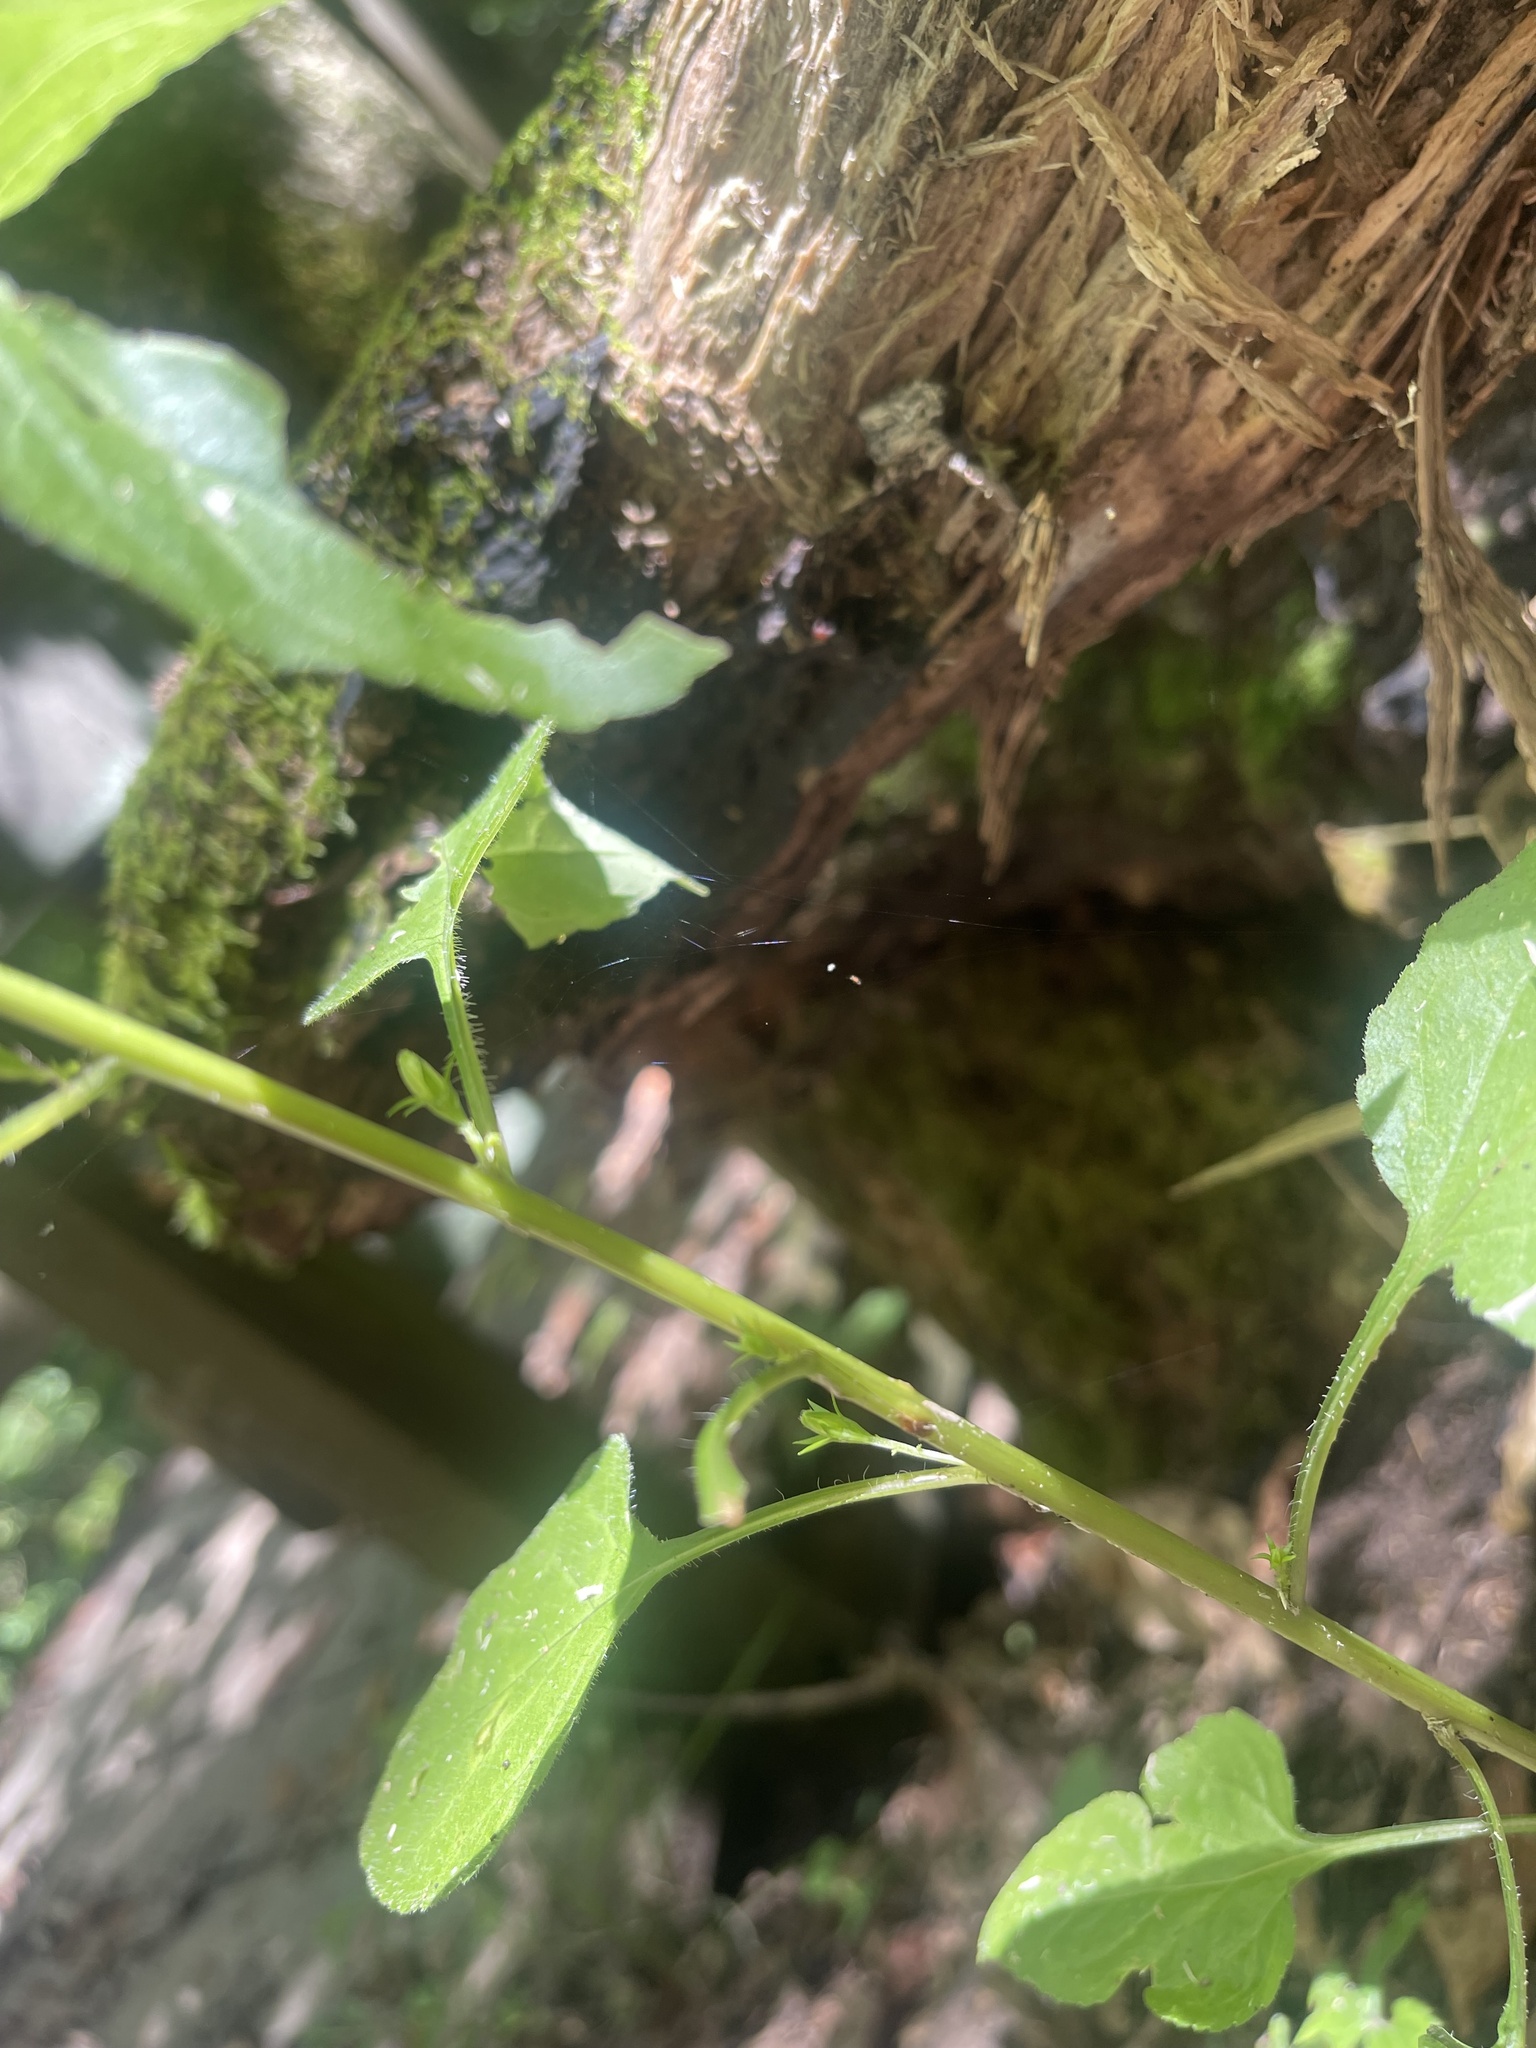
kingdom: Plantae
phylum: Tracheophyta
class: Magnoliopsida
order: Asterales
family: Campanulaceae
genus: Campanulastrum
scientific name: Campanulastrum americanum
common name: American bellflower
